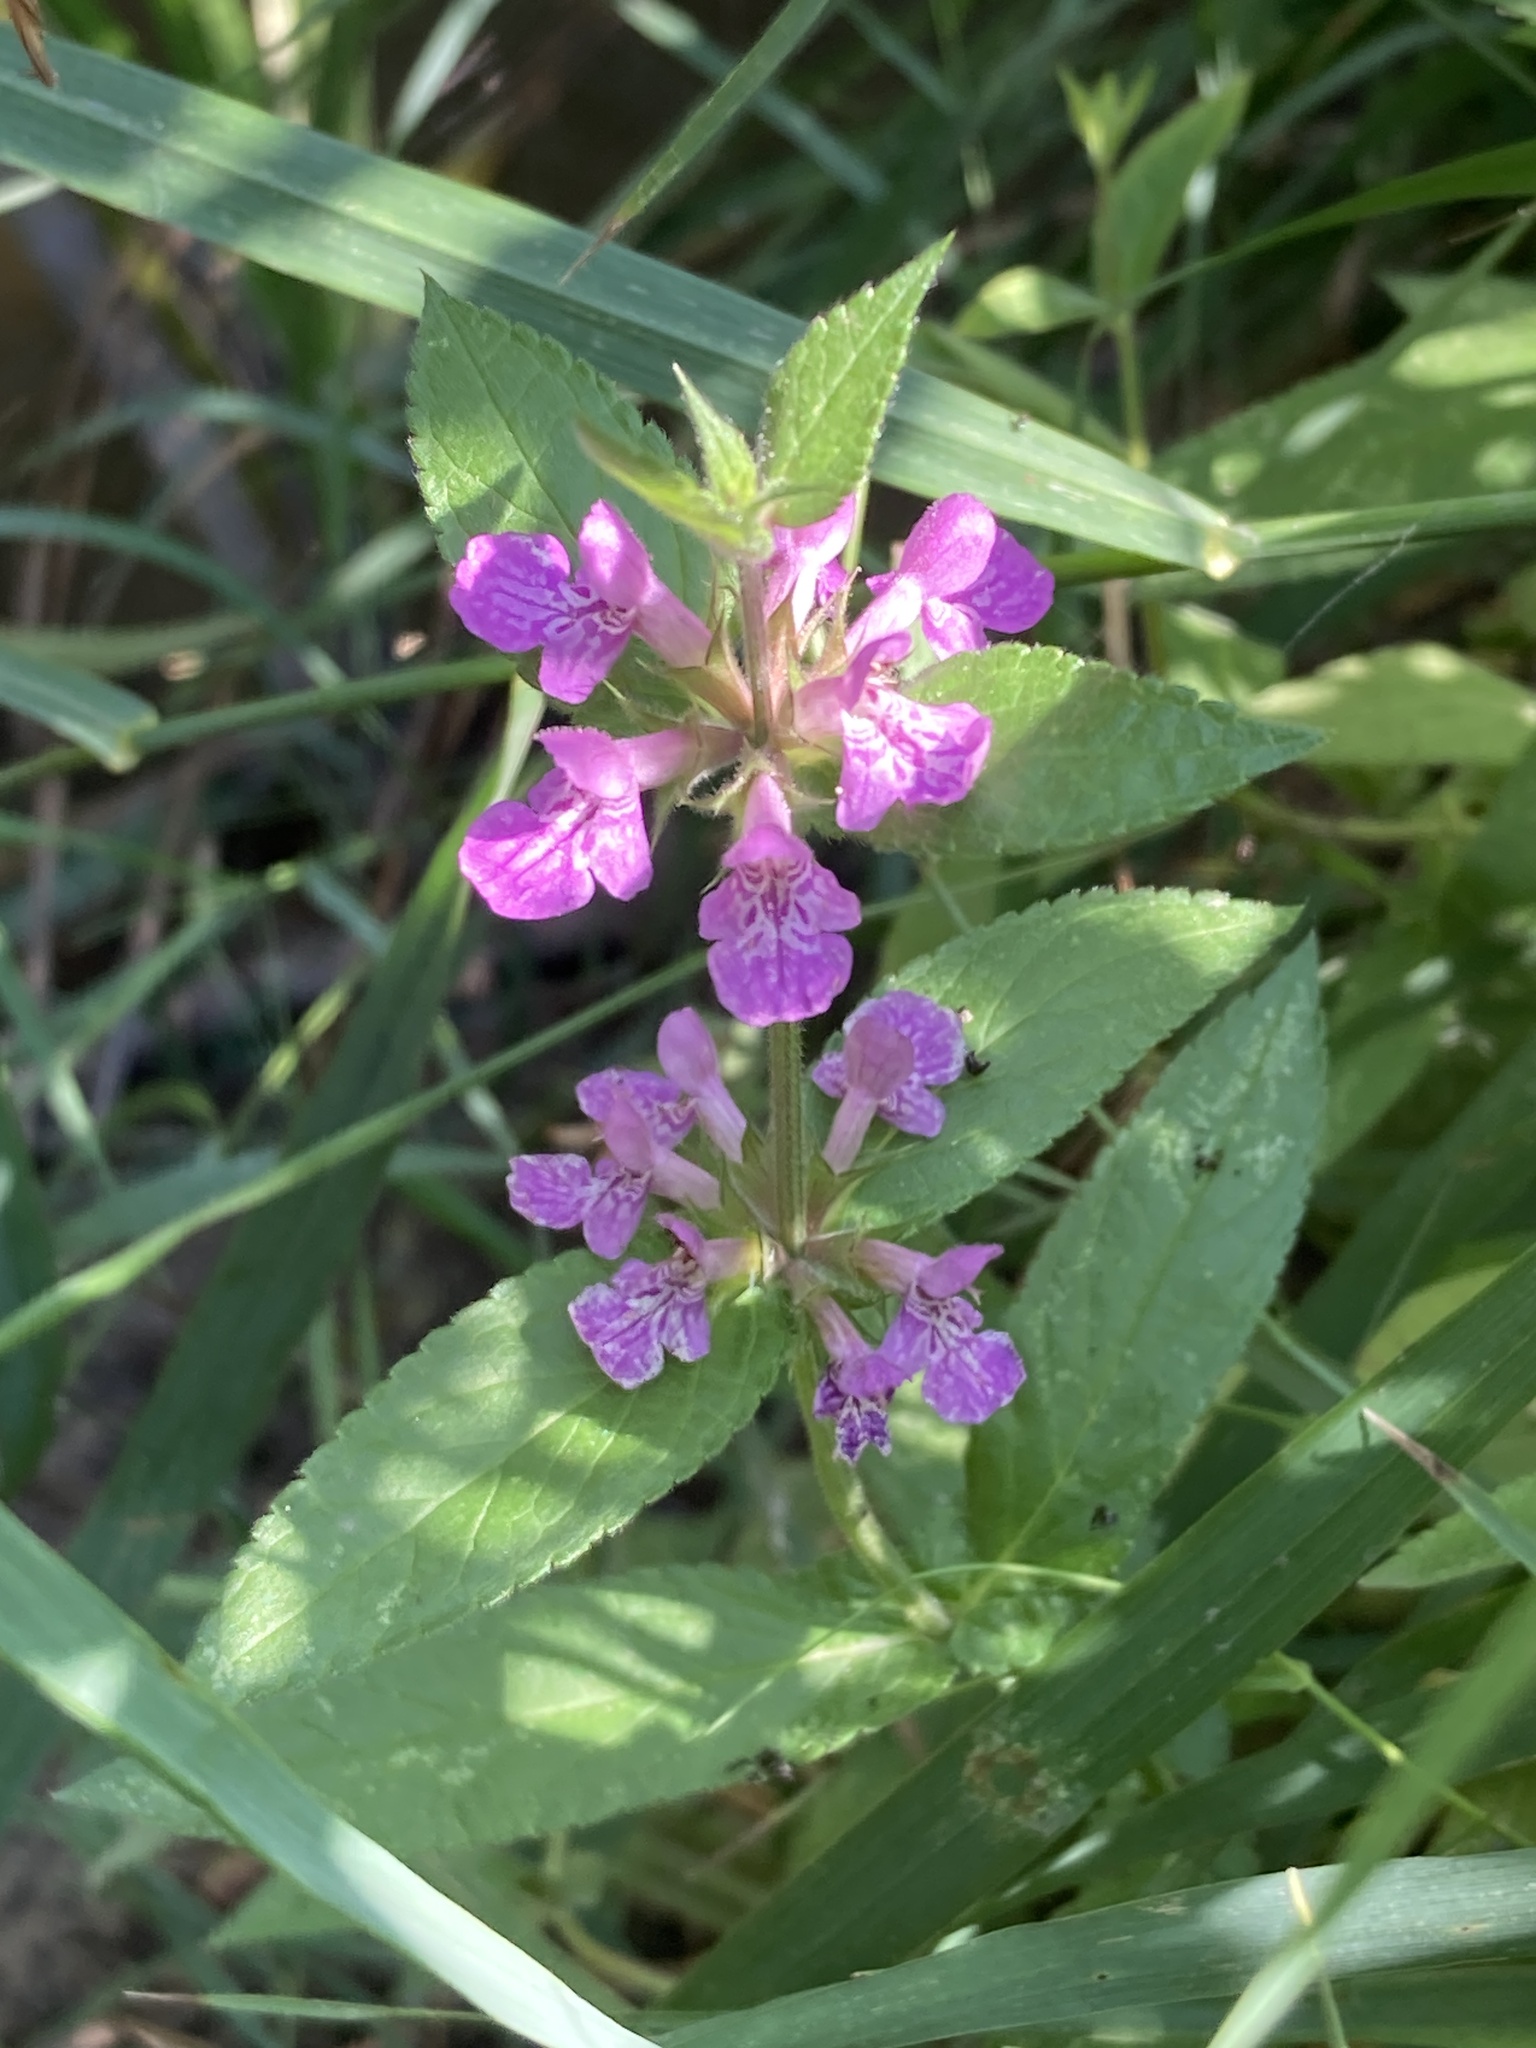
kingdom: Plantae
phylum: Tracheophyta
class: Magnoliopsida
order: Lamiales
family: Lamiaceae
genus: Stachys
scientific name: Stachys palustris
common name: Marsh woundwort
